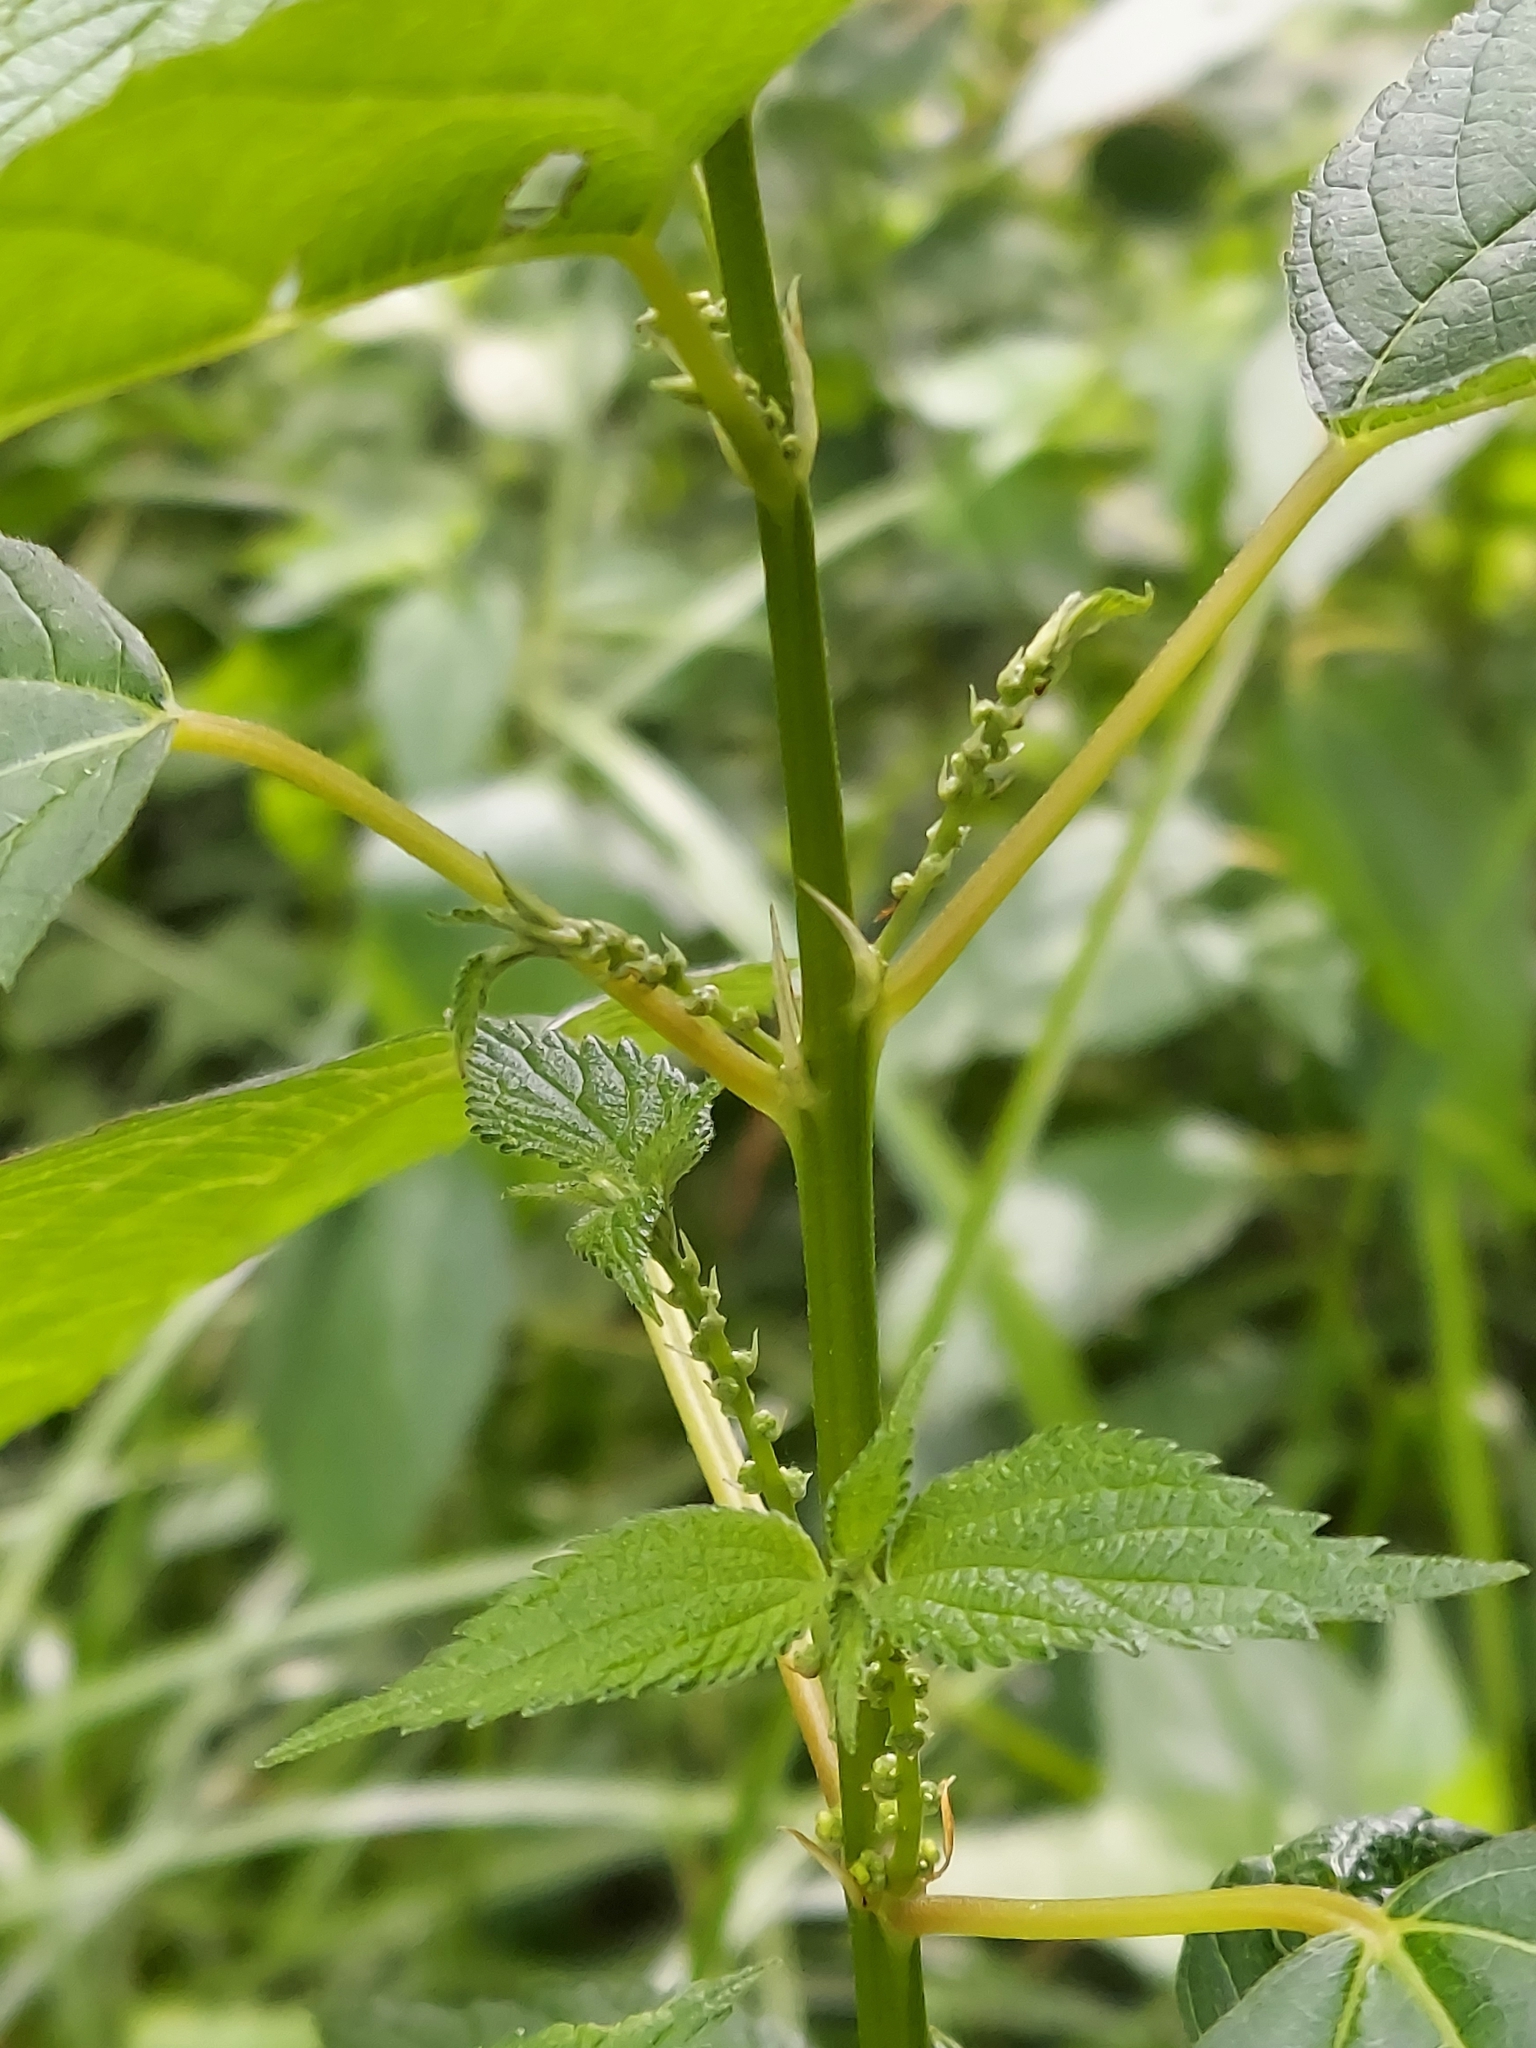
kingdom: Plantae
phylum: Tracheophyta
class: Magnoliopsida
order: Rosales
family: Urticaceae
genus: Boehmeria
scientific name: Boehmeria cylindrica
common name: Bog-hemp
